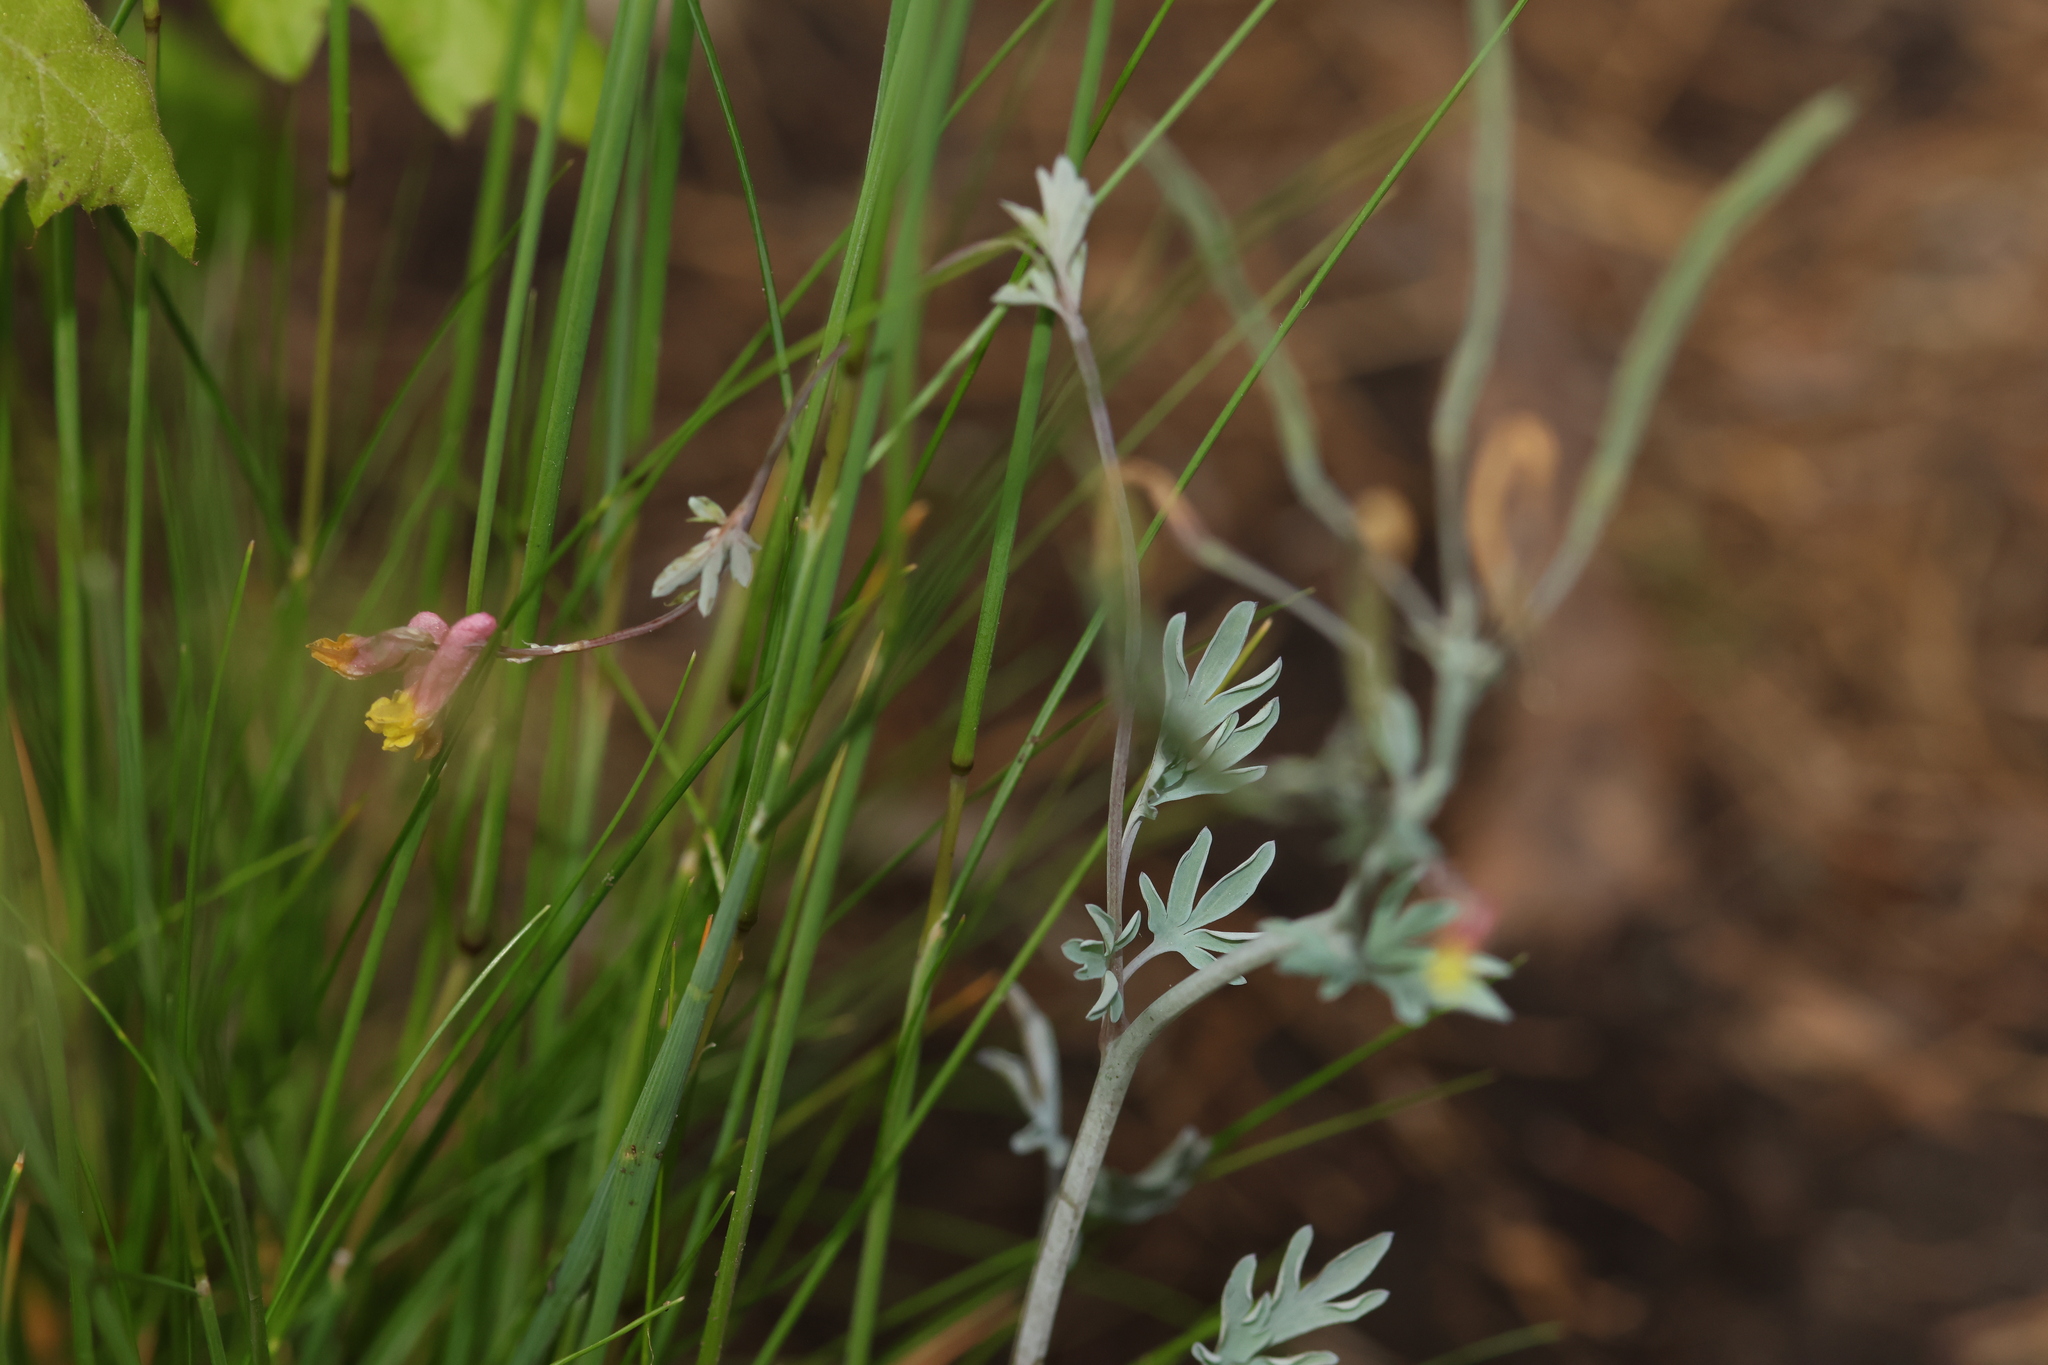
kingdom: Plantae
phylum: Tracheophyta
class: Magnoliopsida
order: Ranunculales
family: Papaveraceae
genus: Capnoides
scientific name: Capnoides sempervirens
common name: Rock harlequin
